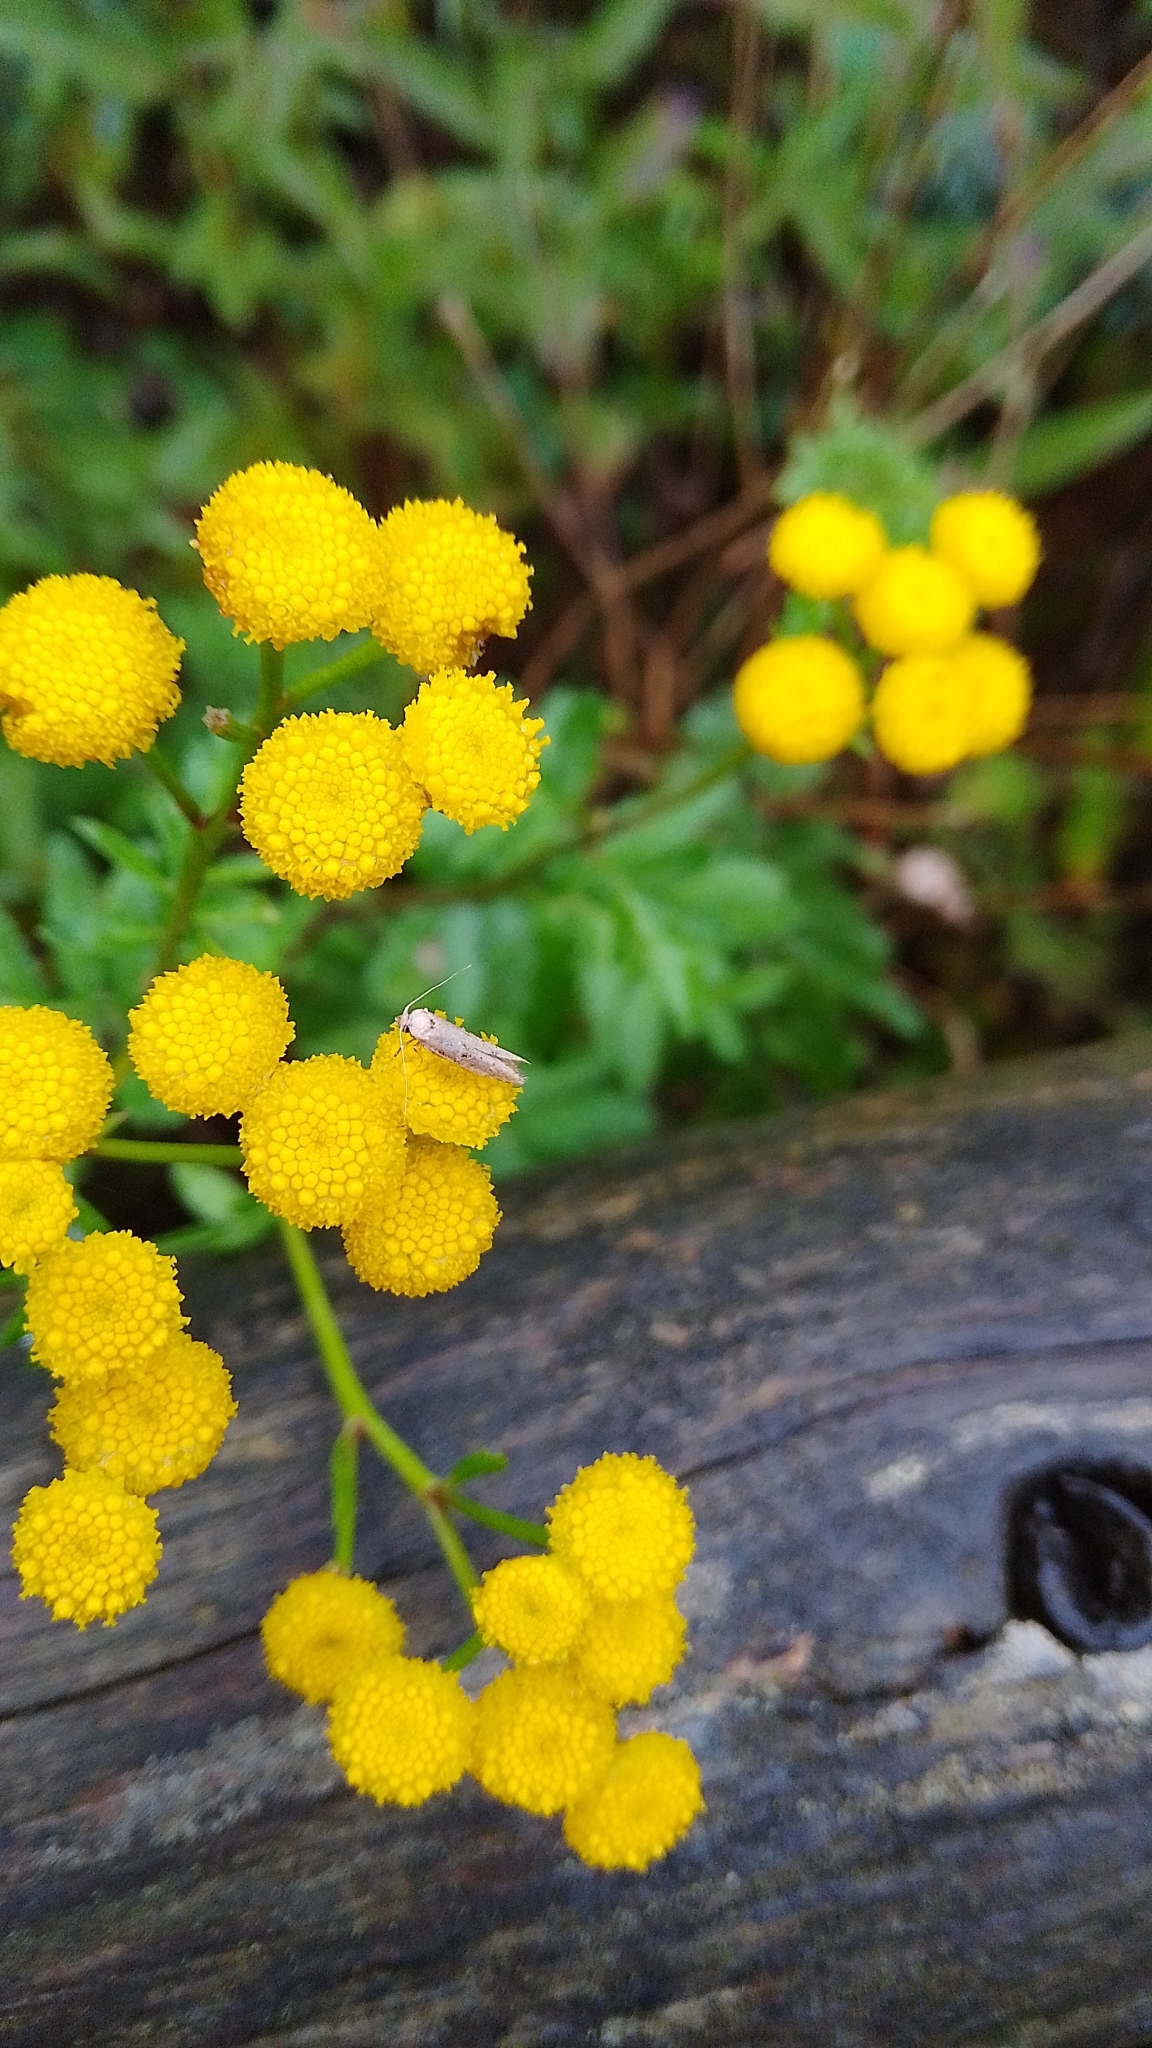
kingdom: Animalia
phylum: Arthropoda
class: Insecta
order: Lepidoptera
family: Blastobasidae
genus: Blastobasis
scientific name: Blastobasis adustella
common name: Dingy dowd
